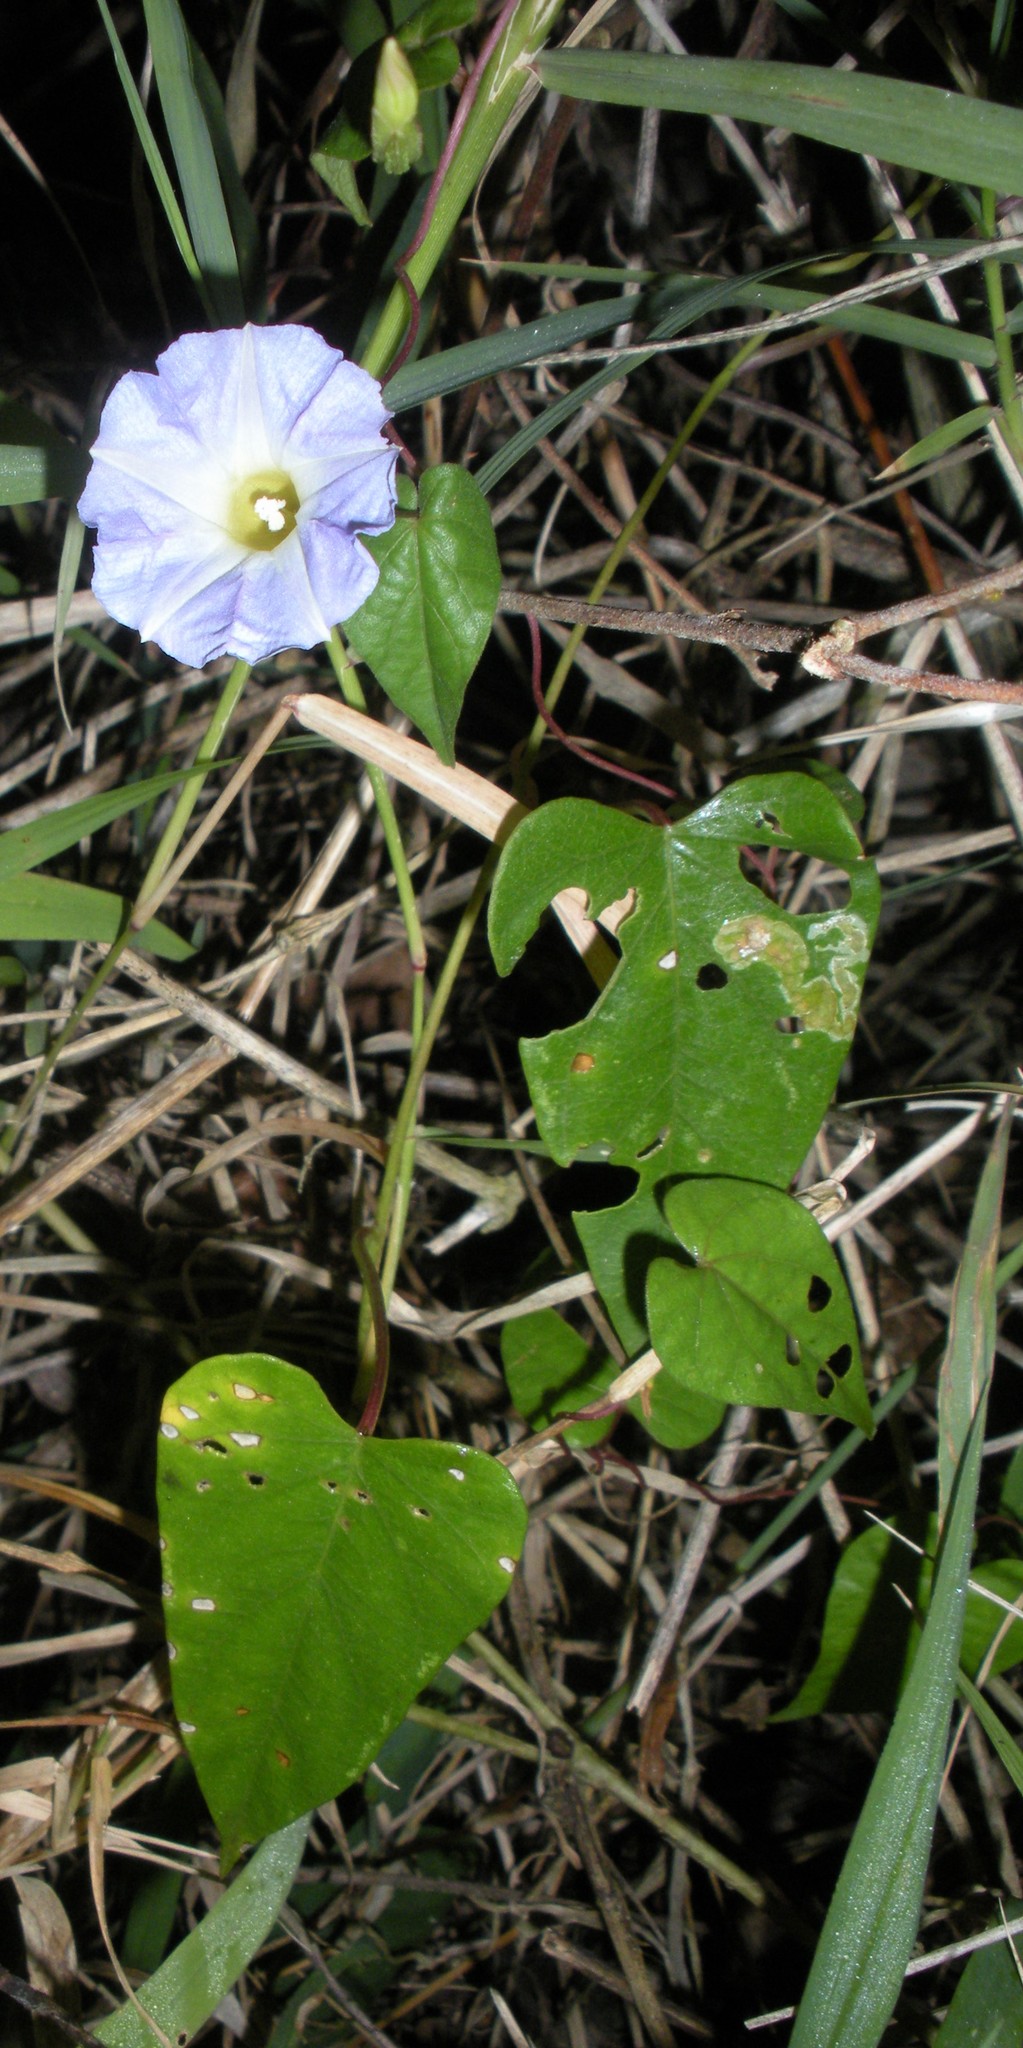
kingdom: Plantae
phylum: Tracheophyta
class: Magnoliopsida
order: Solanales
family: Convolvulaceae
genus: Ipomoea
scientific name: Ipomoea aristolochiifolia
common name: Aristolochia-leaved morning-glory
